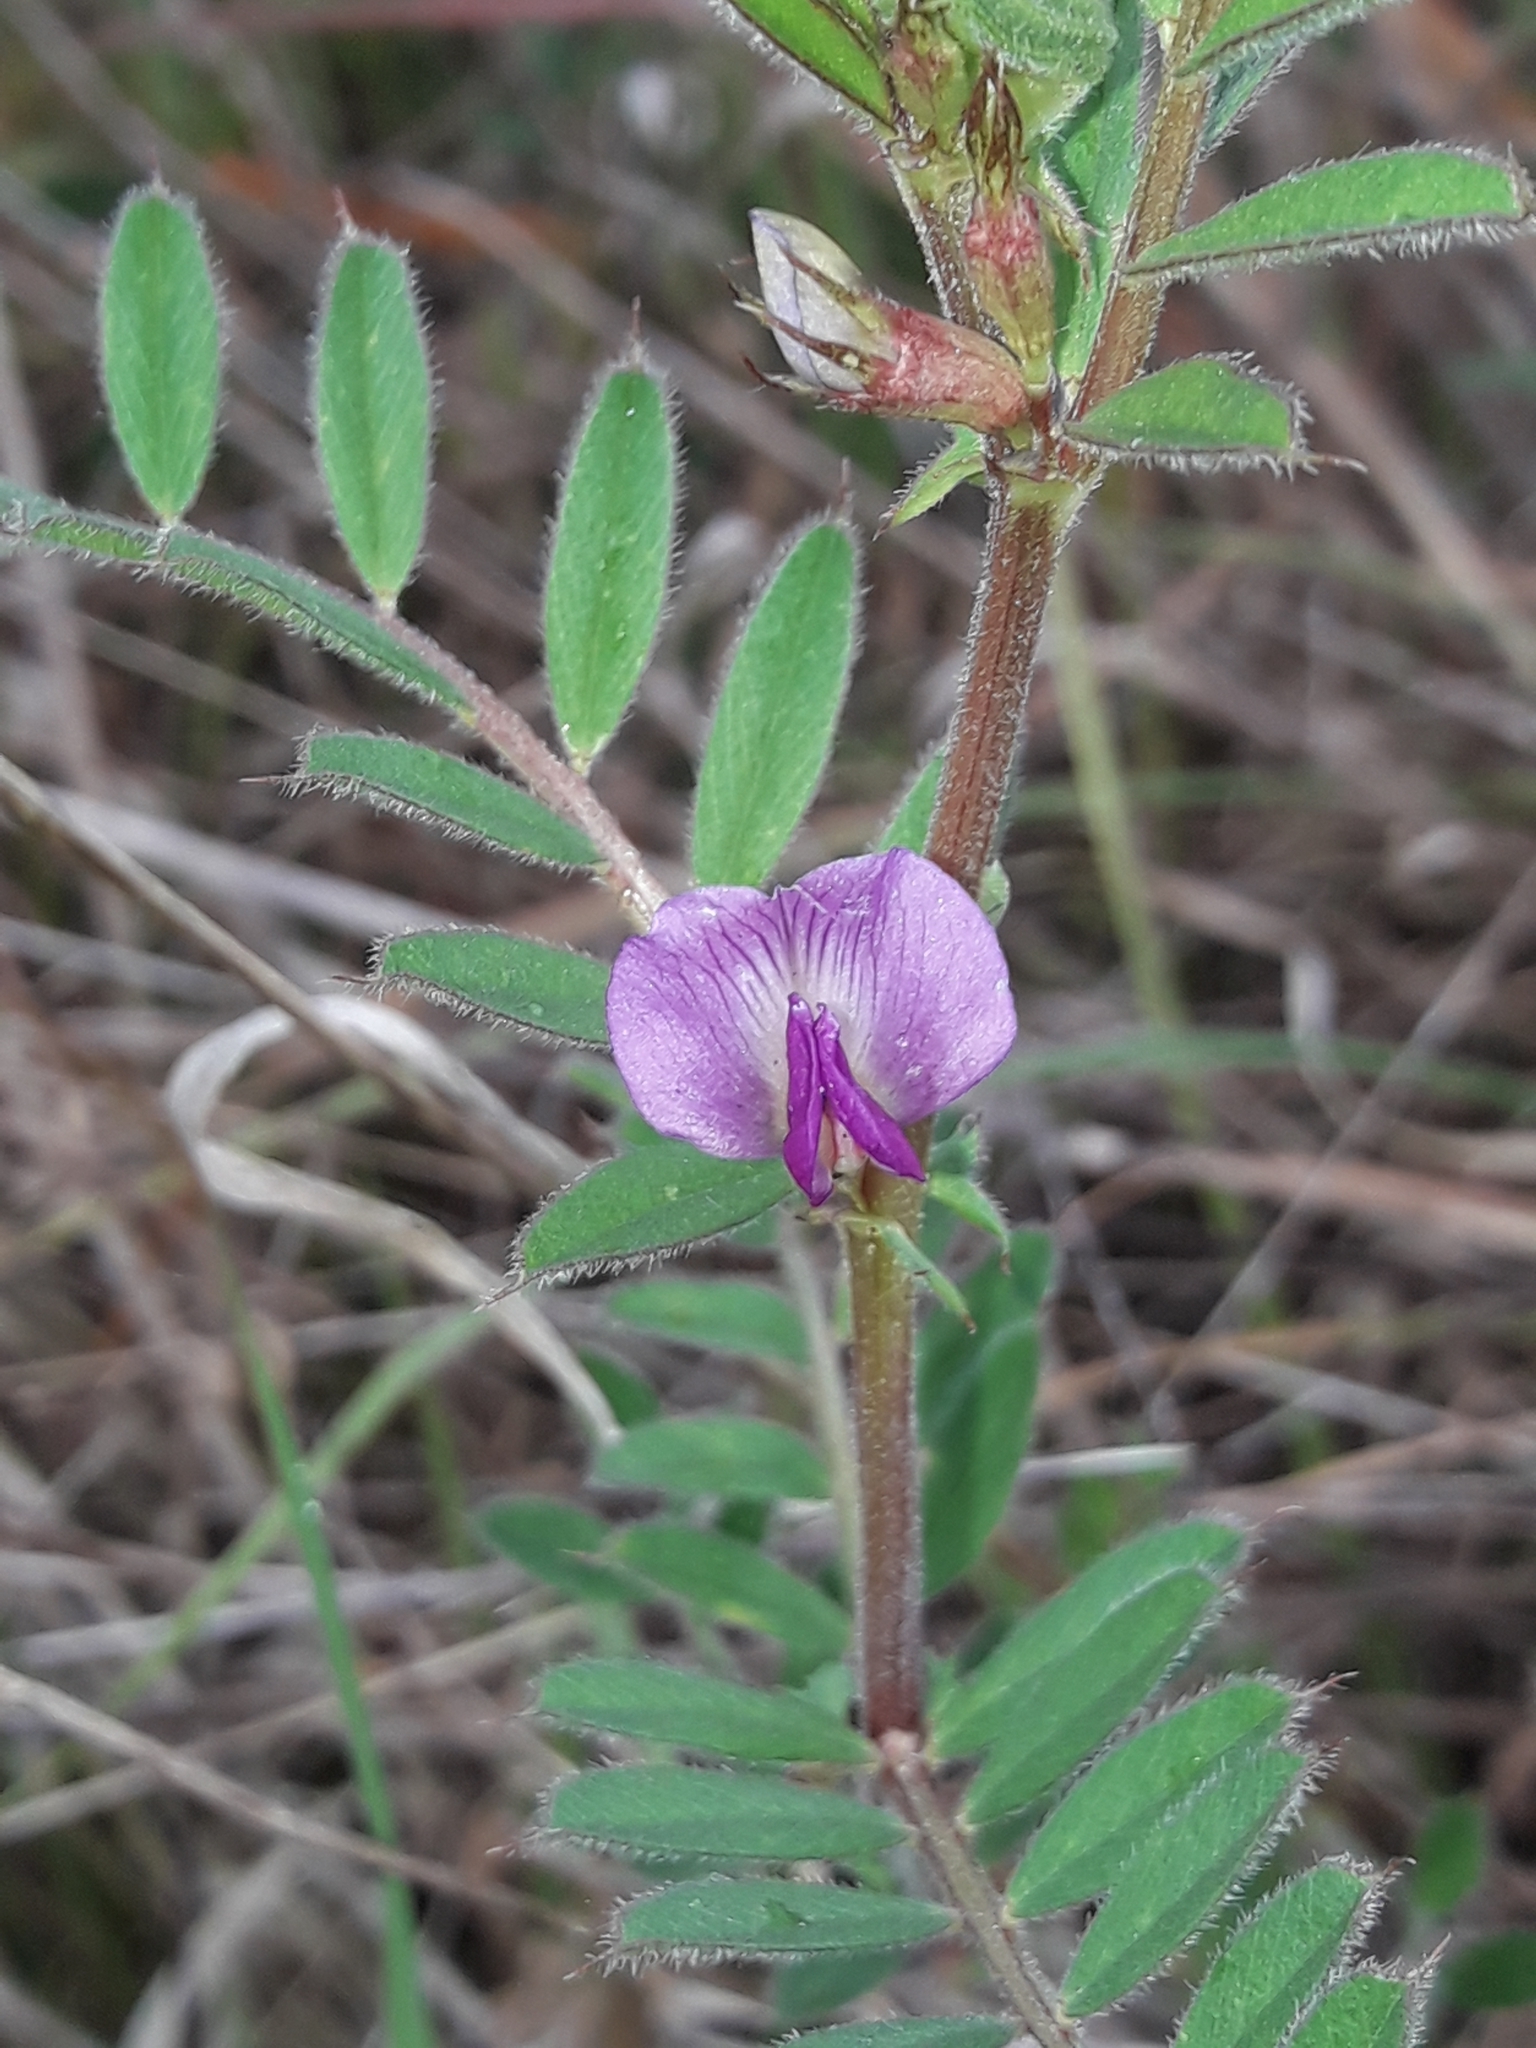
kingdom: Plantae
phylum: Tracheophyta
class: Magnoliopsida
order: Fabales
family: Fabaceae
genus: Vicia
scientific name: Vicia sativa
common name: Garden vetch
